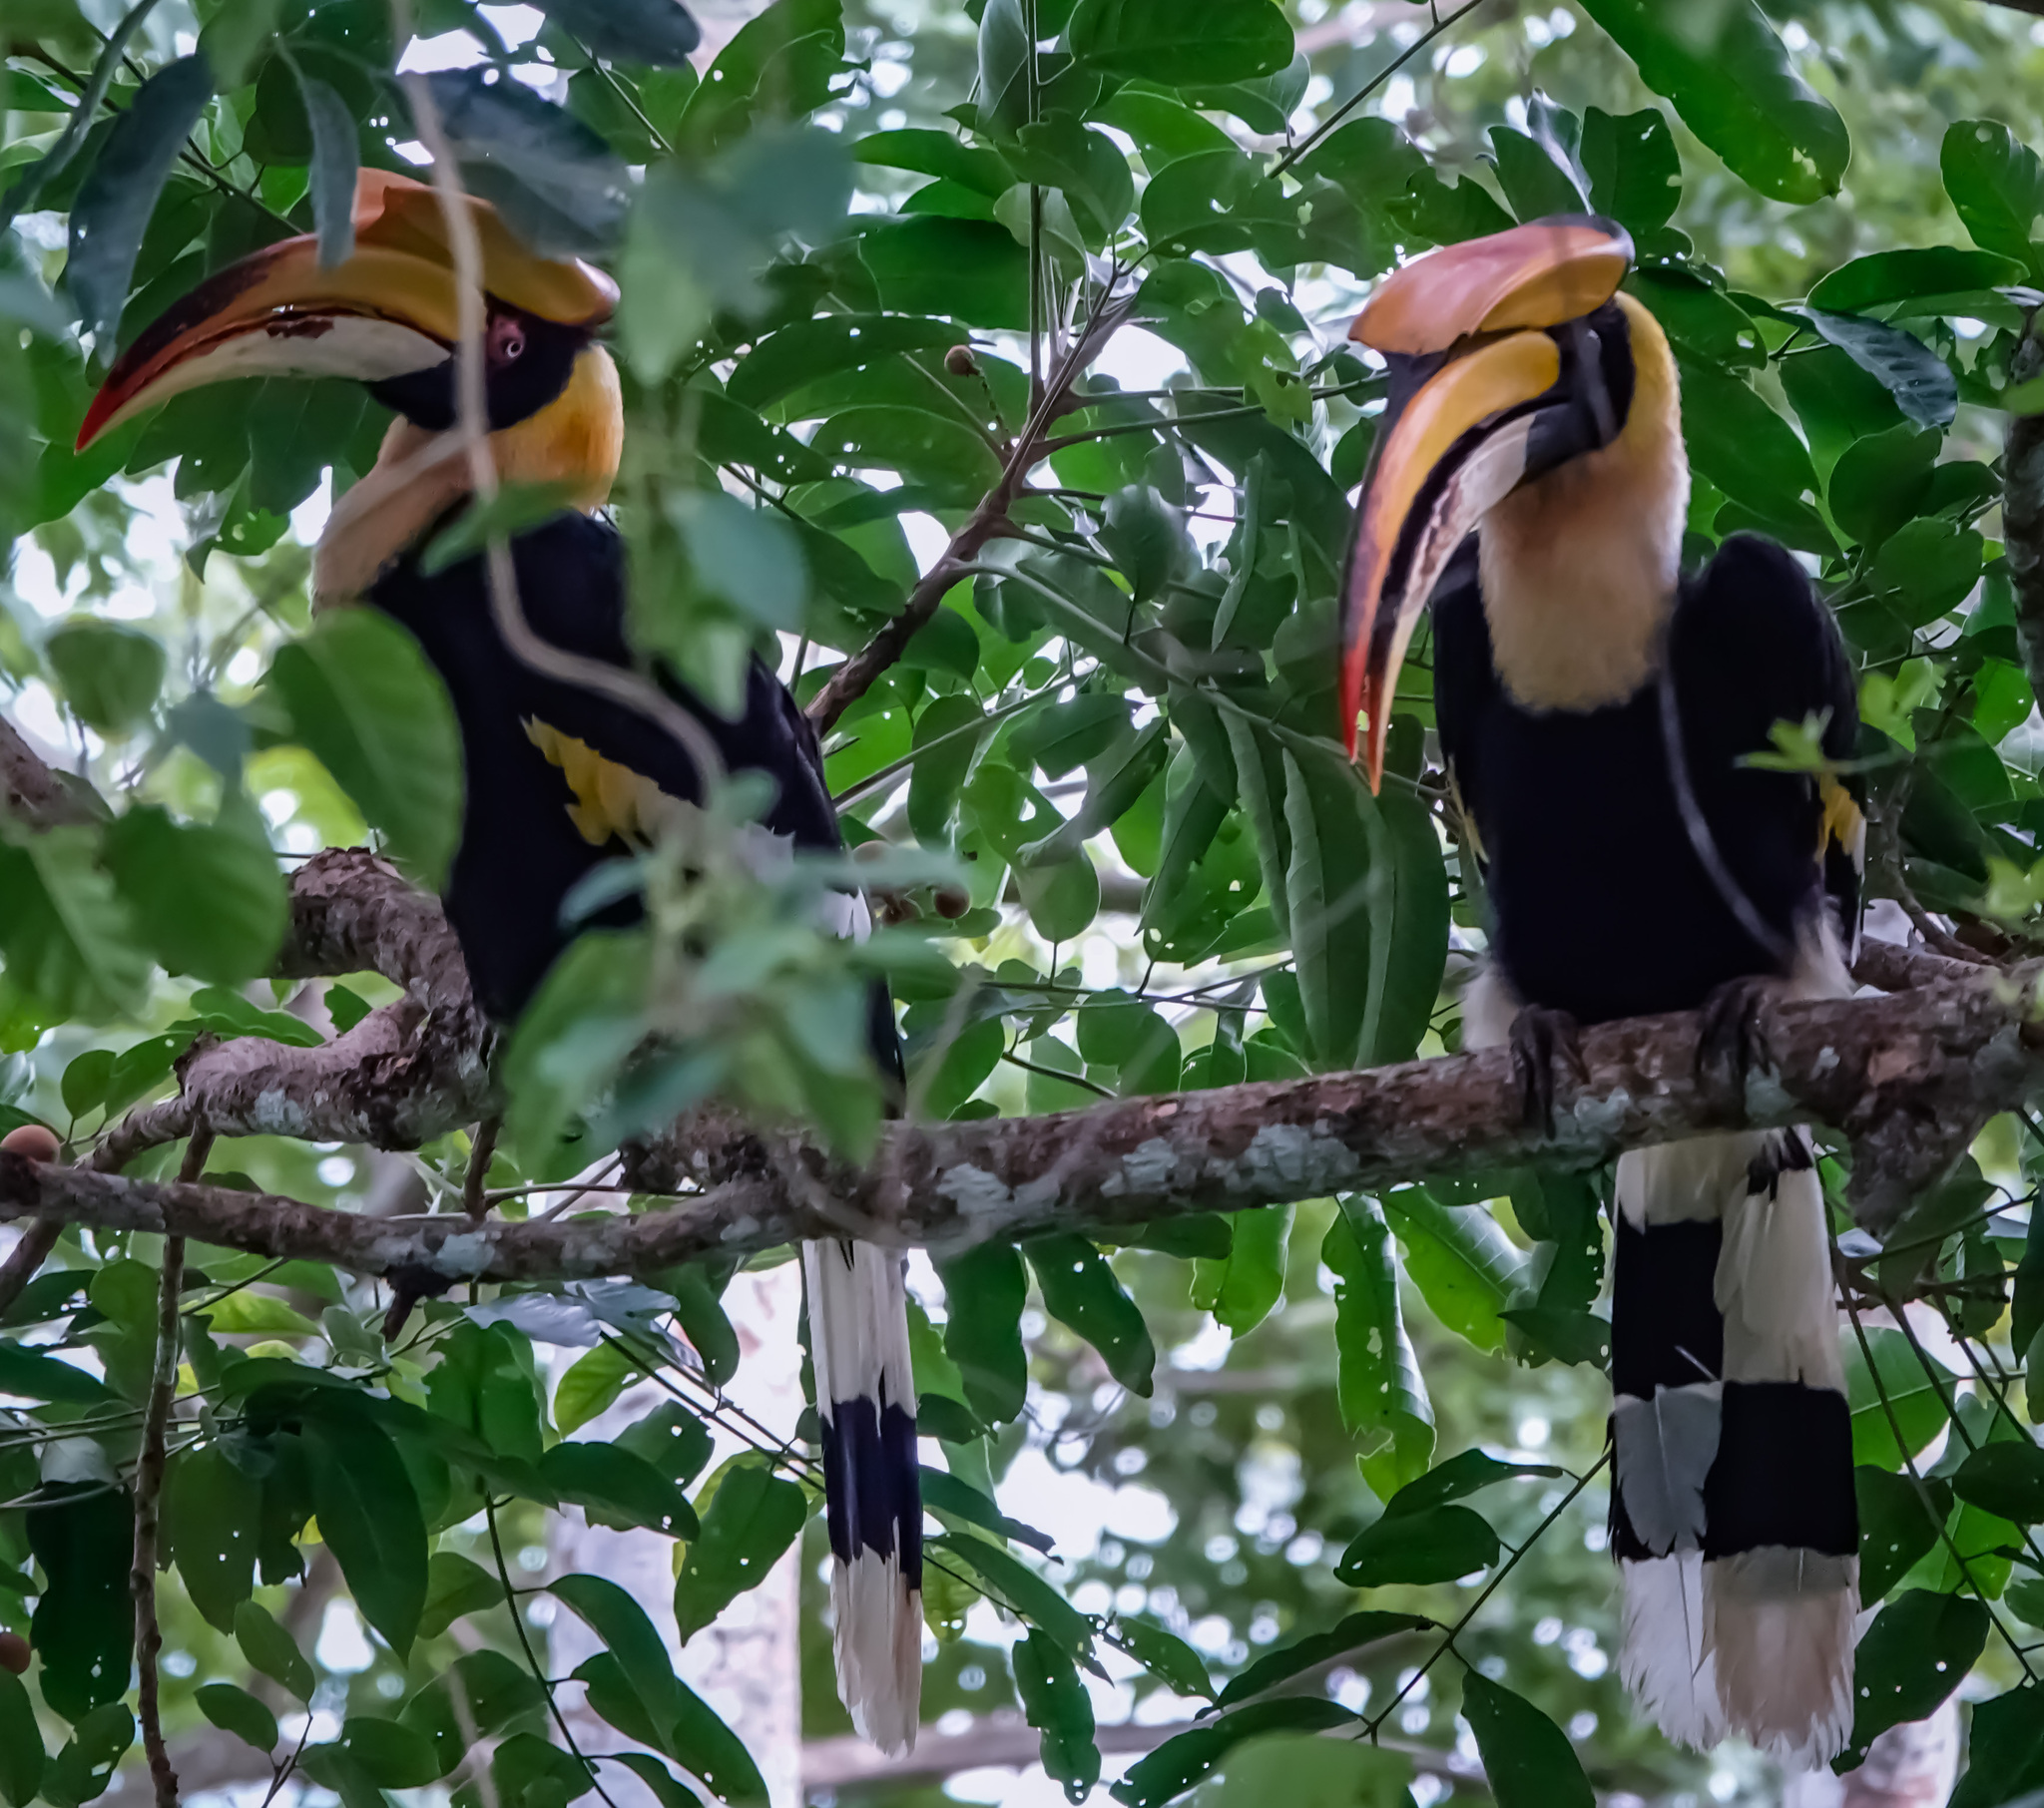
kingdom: Animalia
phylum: Chordata
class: Aves
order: Bucerotiformes
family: Bucerotidae
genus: Buceros
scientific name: Buceros bicornis
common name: Great hornbill
